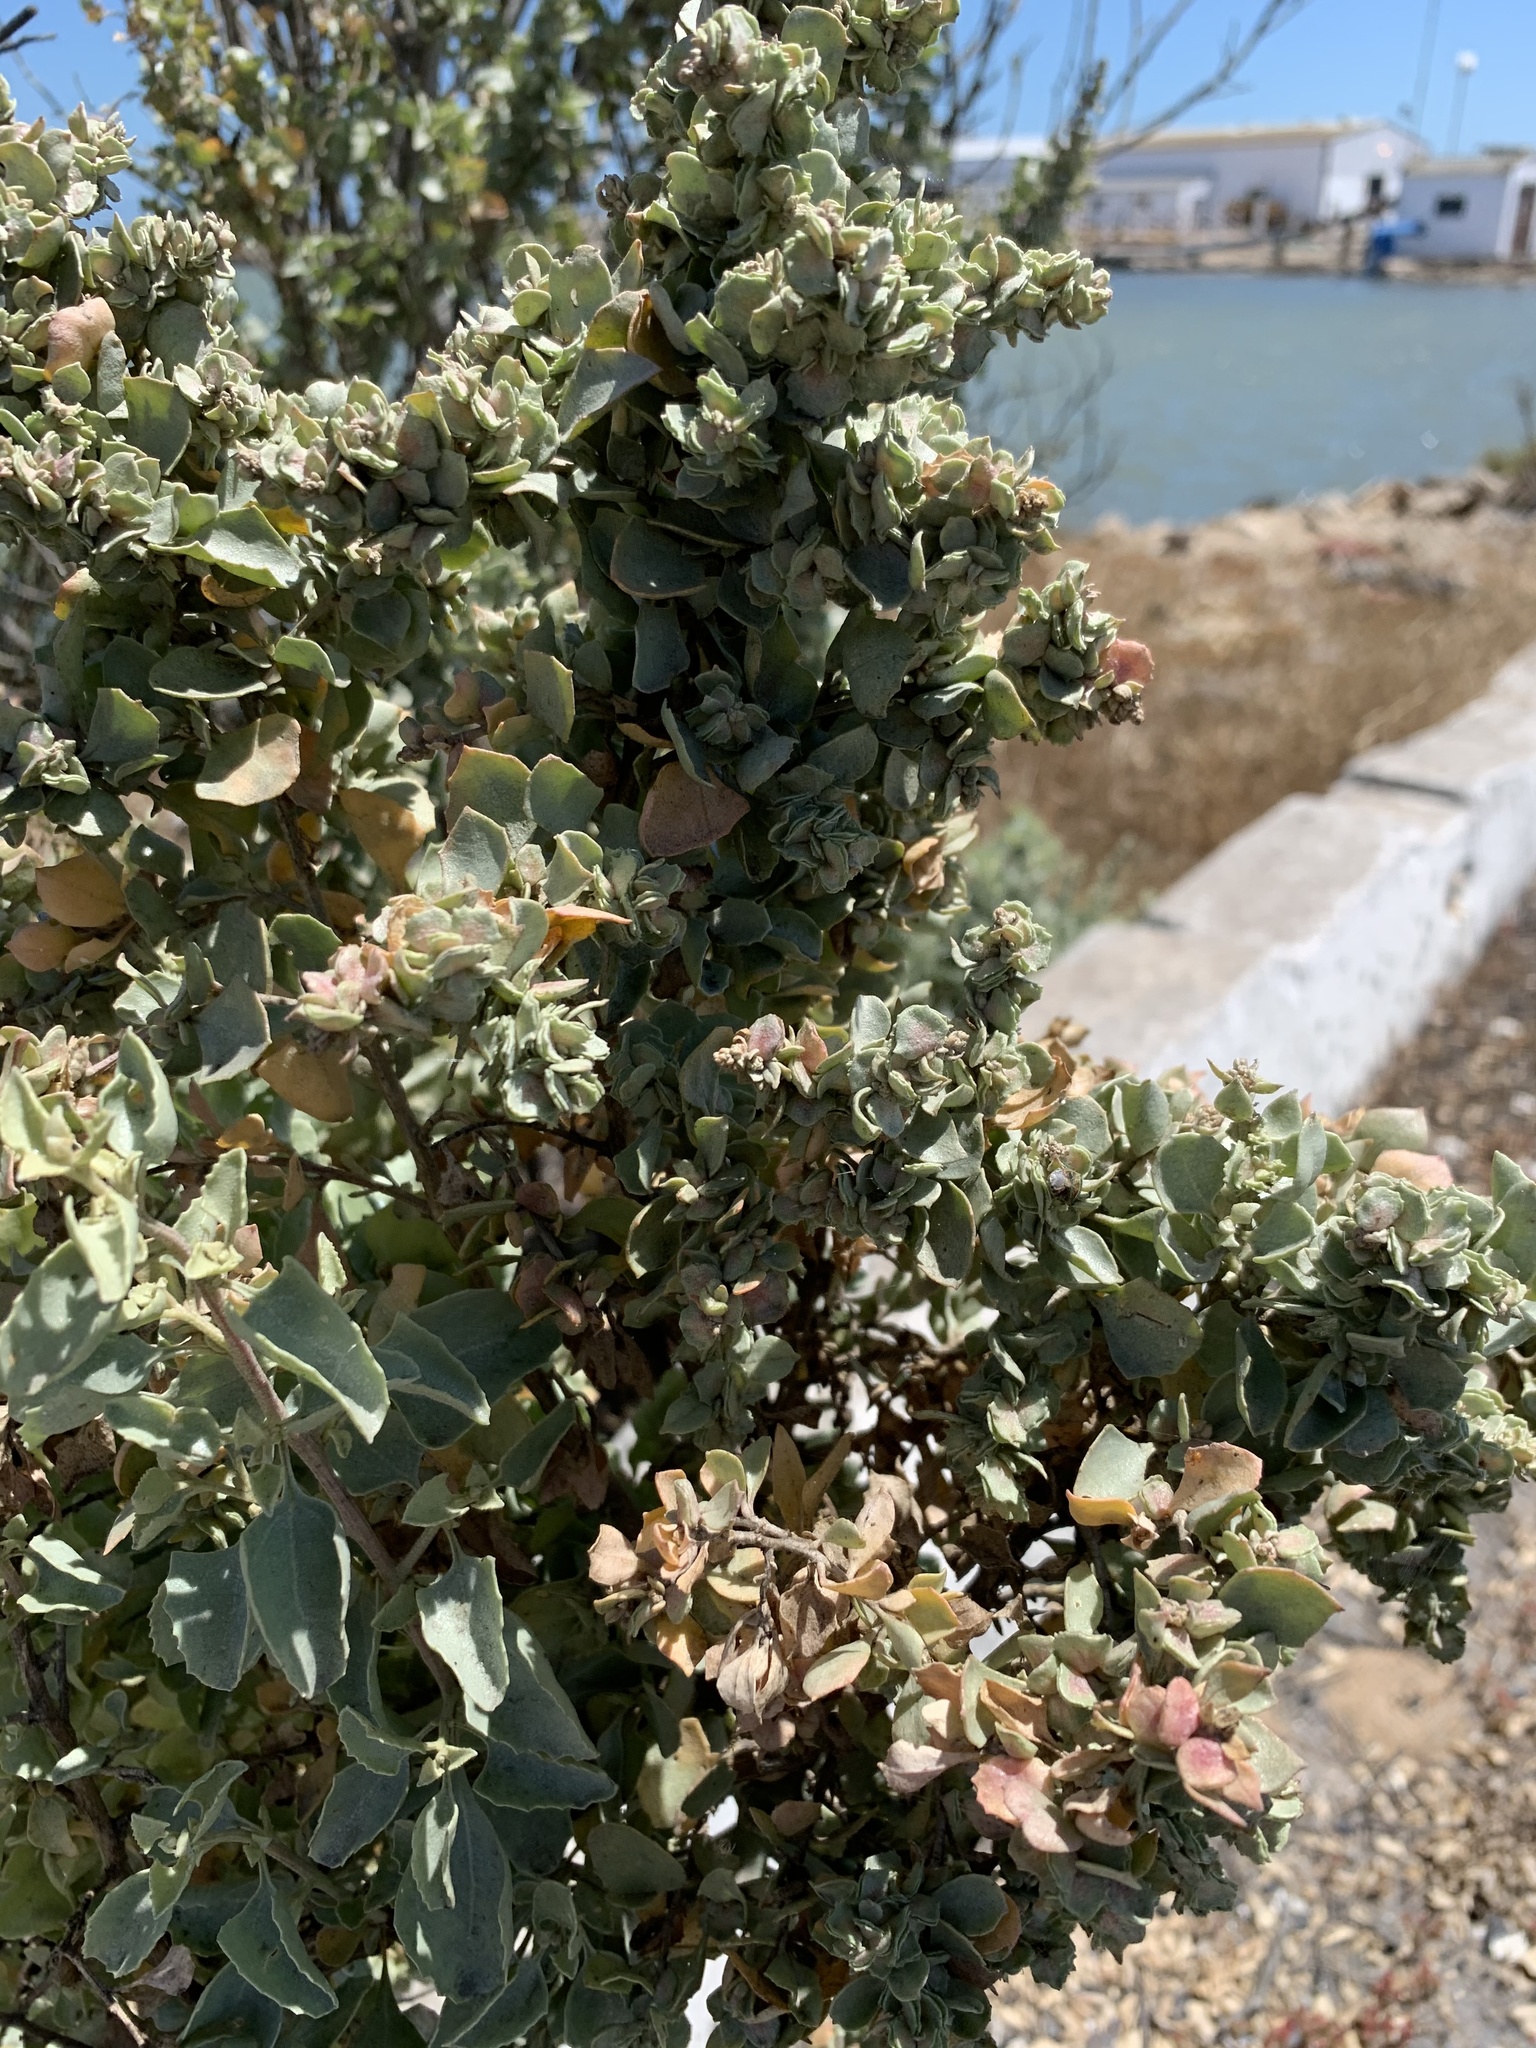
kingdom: Plantae
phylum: Tracheophyta
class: Magnoliopsida
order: Caryophyllales
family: Amaranthaceae
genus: Atriplex
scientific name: Atriplex nummularia
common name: Bluegreen saltbush
